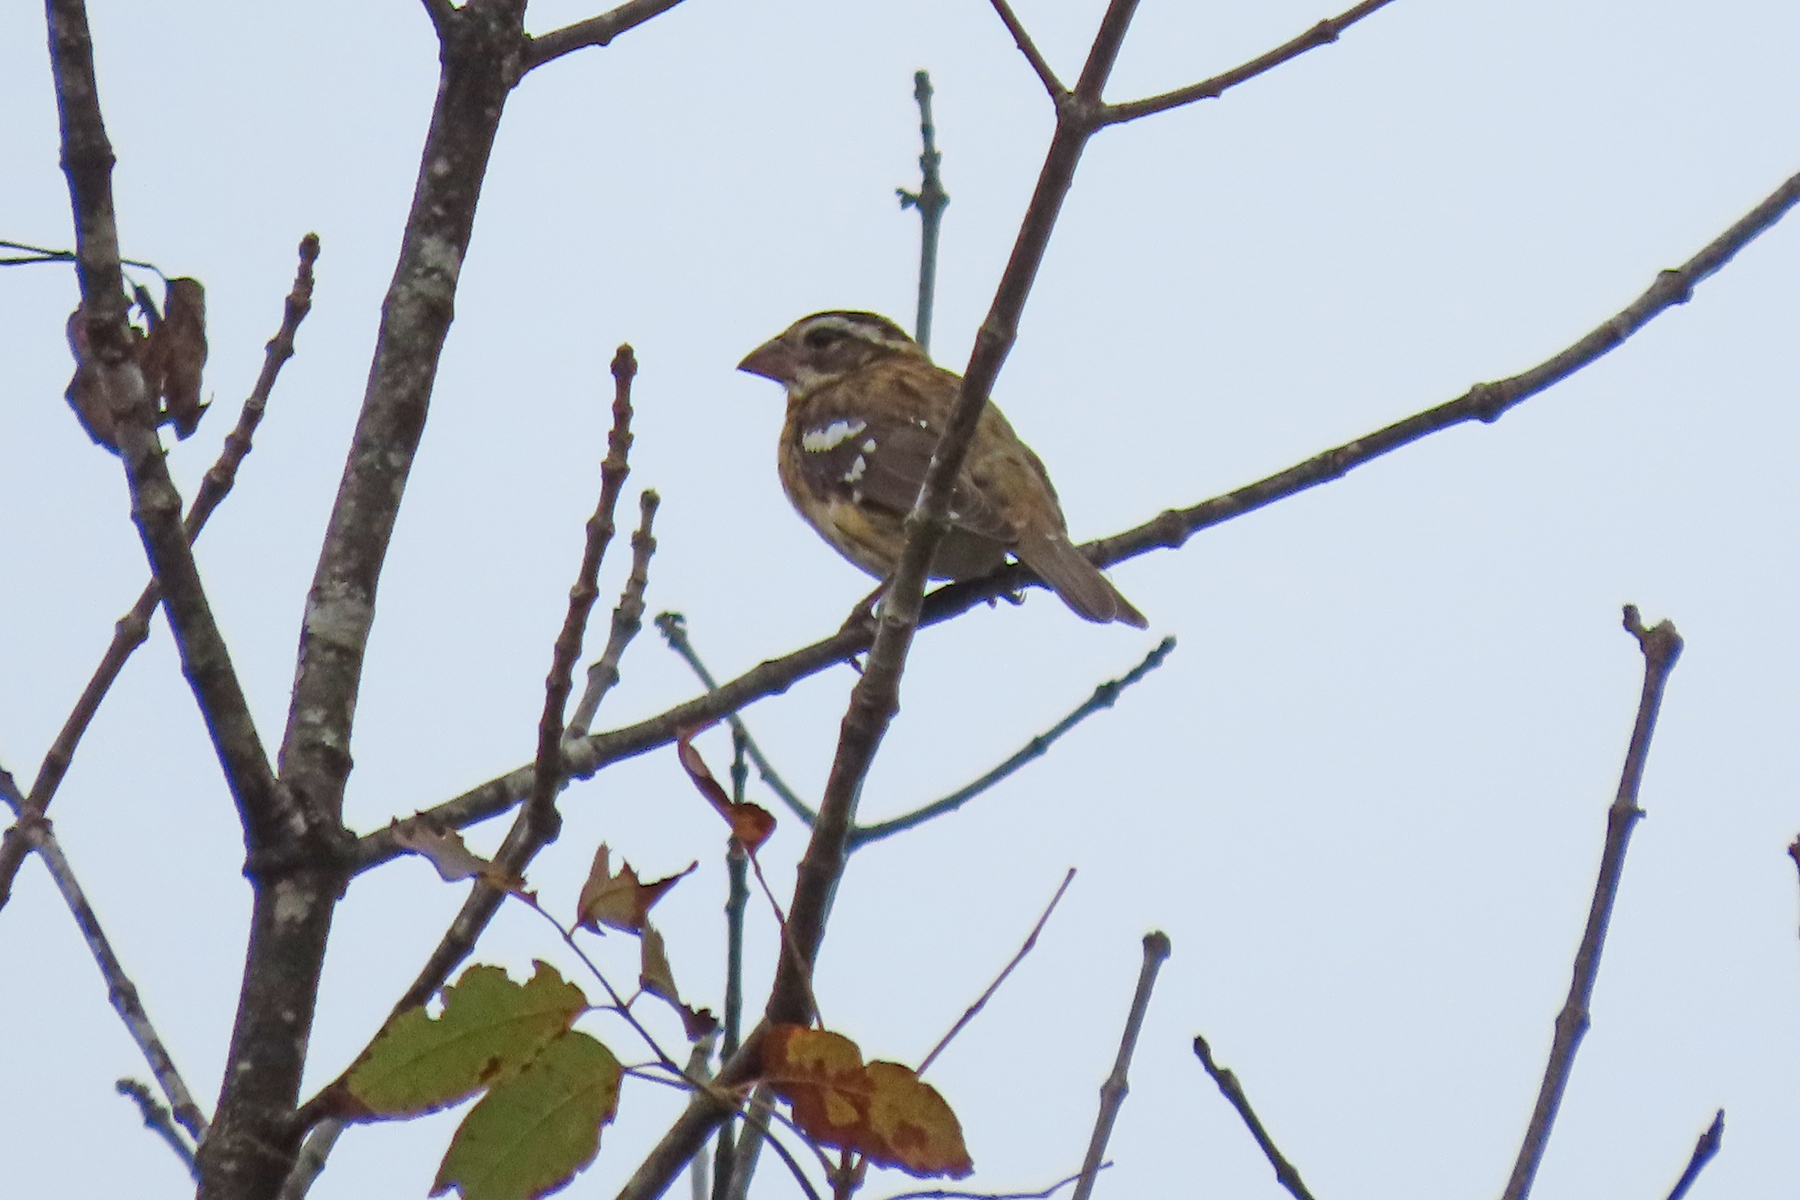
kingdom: Animalia
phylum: Chordata
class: Aves
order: Passeriformes
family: Cardinalidae
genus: Pheucticus
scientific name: Pheucticus ludovicianus
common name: Rose-breasted grosbeak
